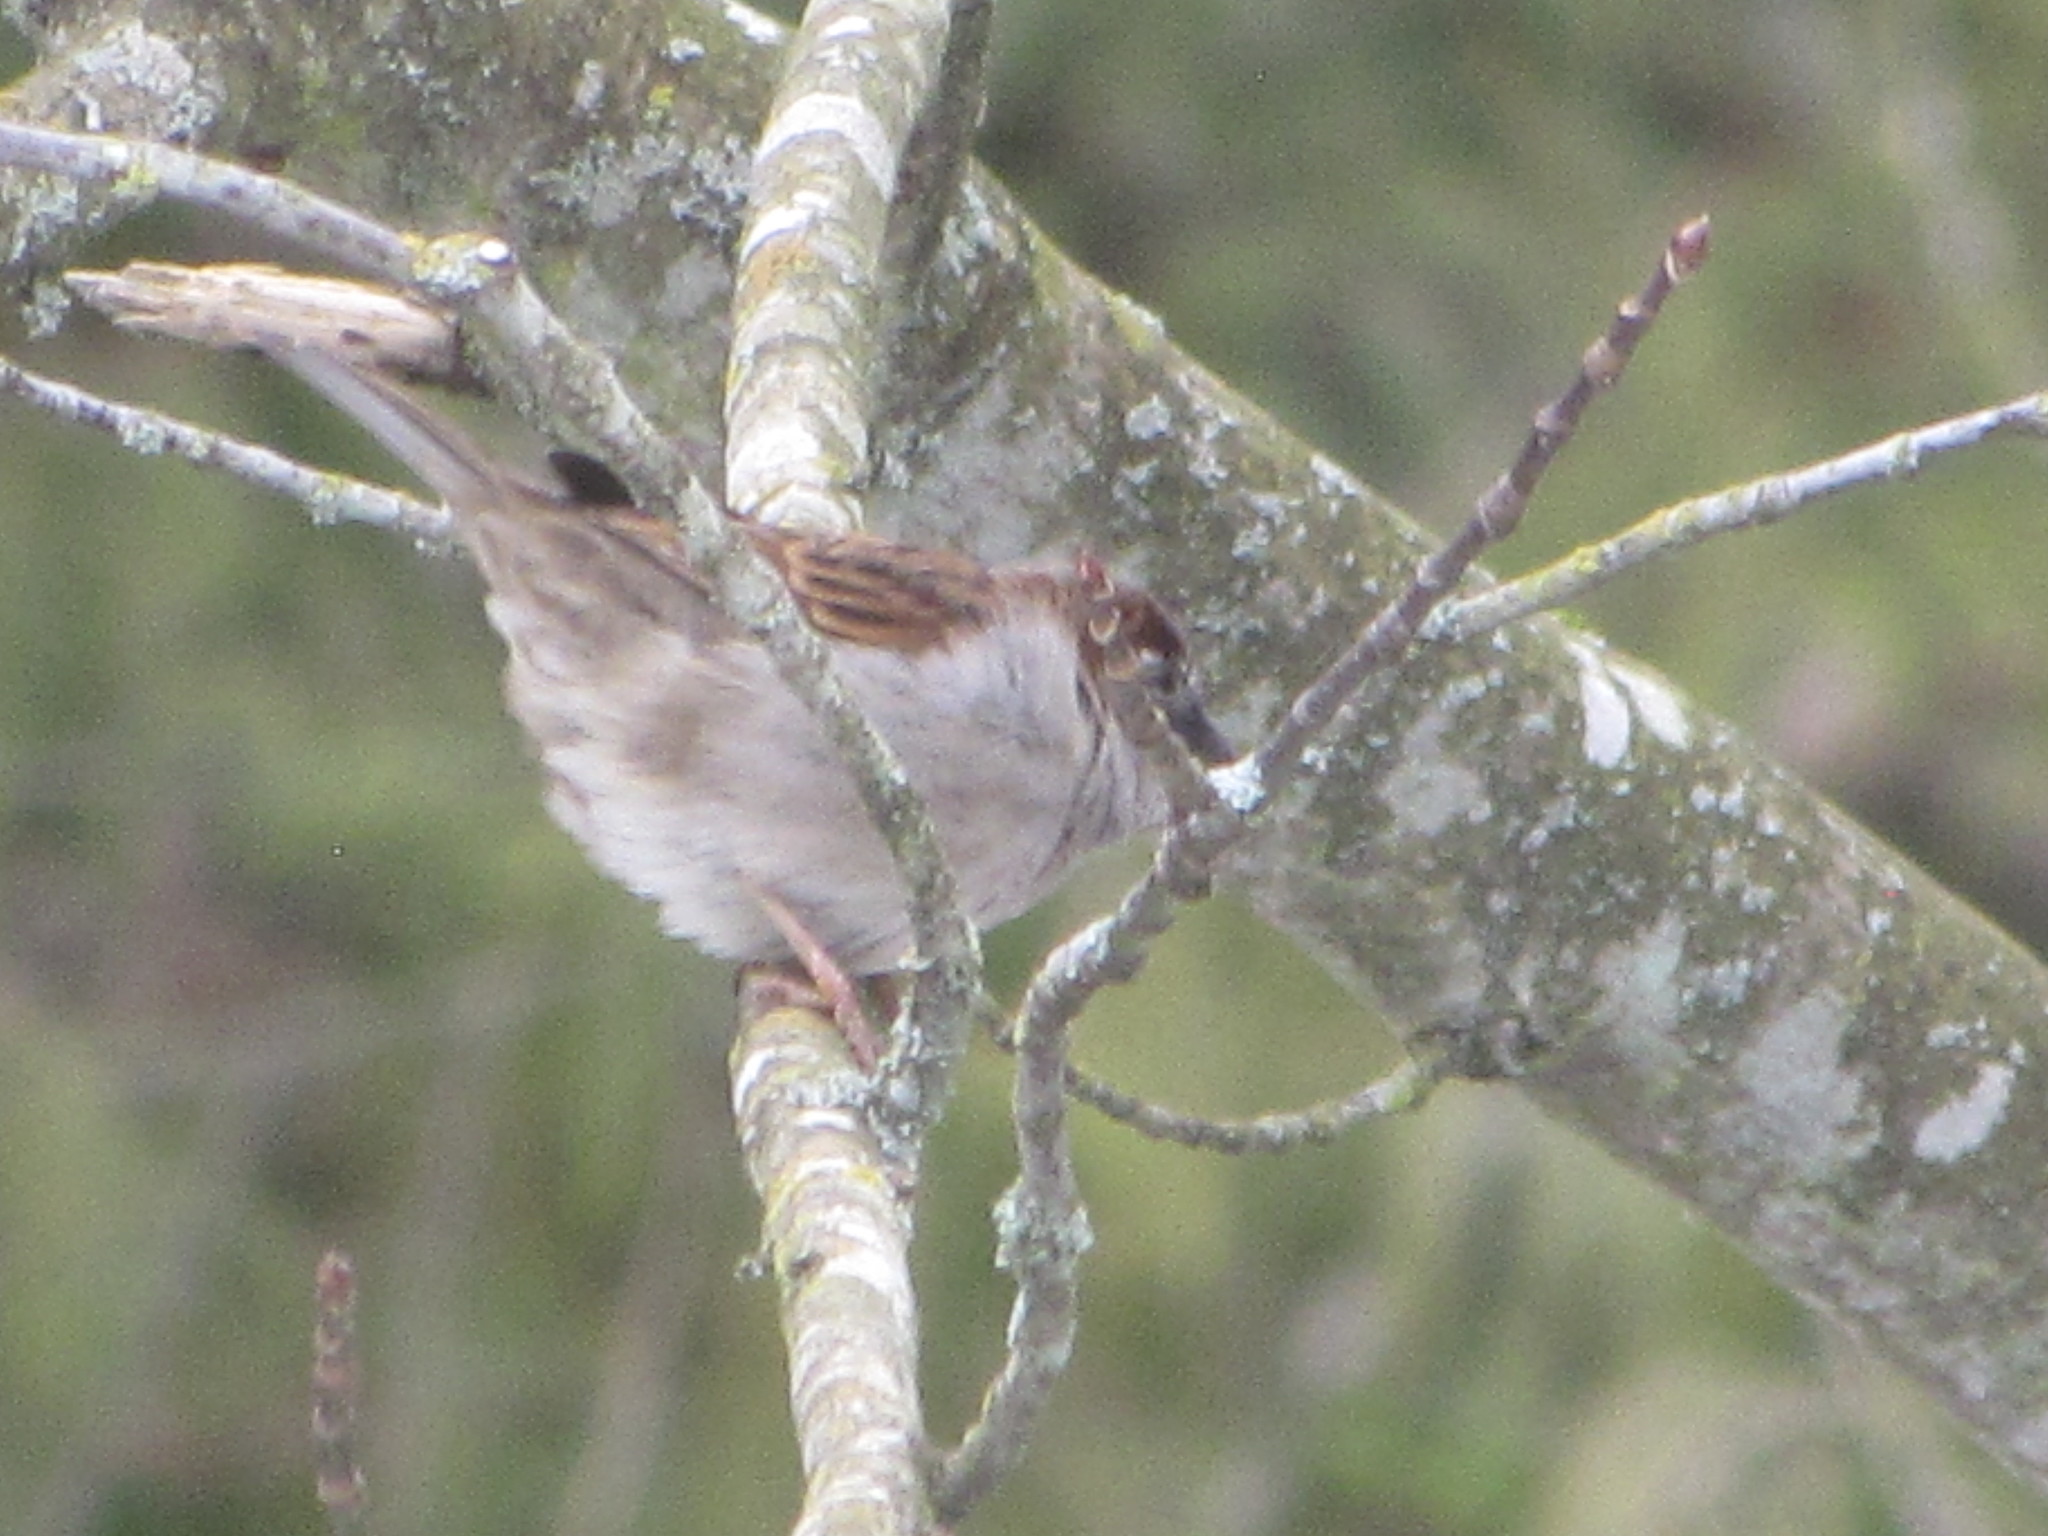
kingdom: Animalia
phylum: Chordata
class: Aves
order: Passeriformes
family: Passeridae
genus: Passer
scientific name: Passer domesticus
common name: House sparrow
